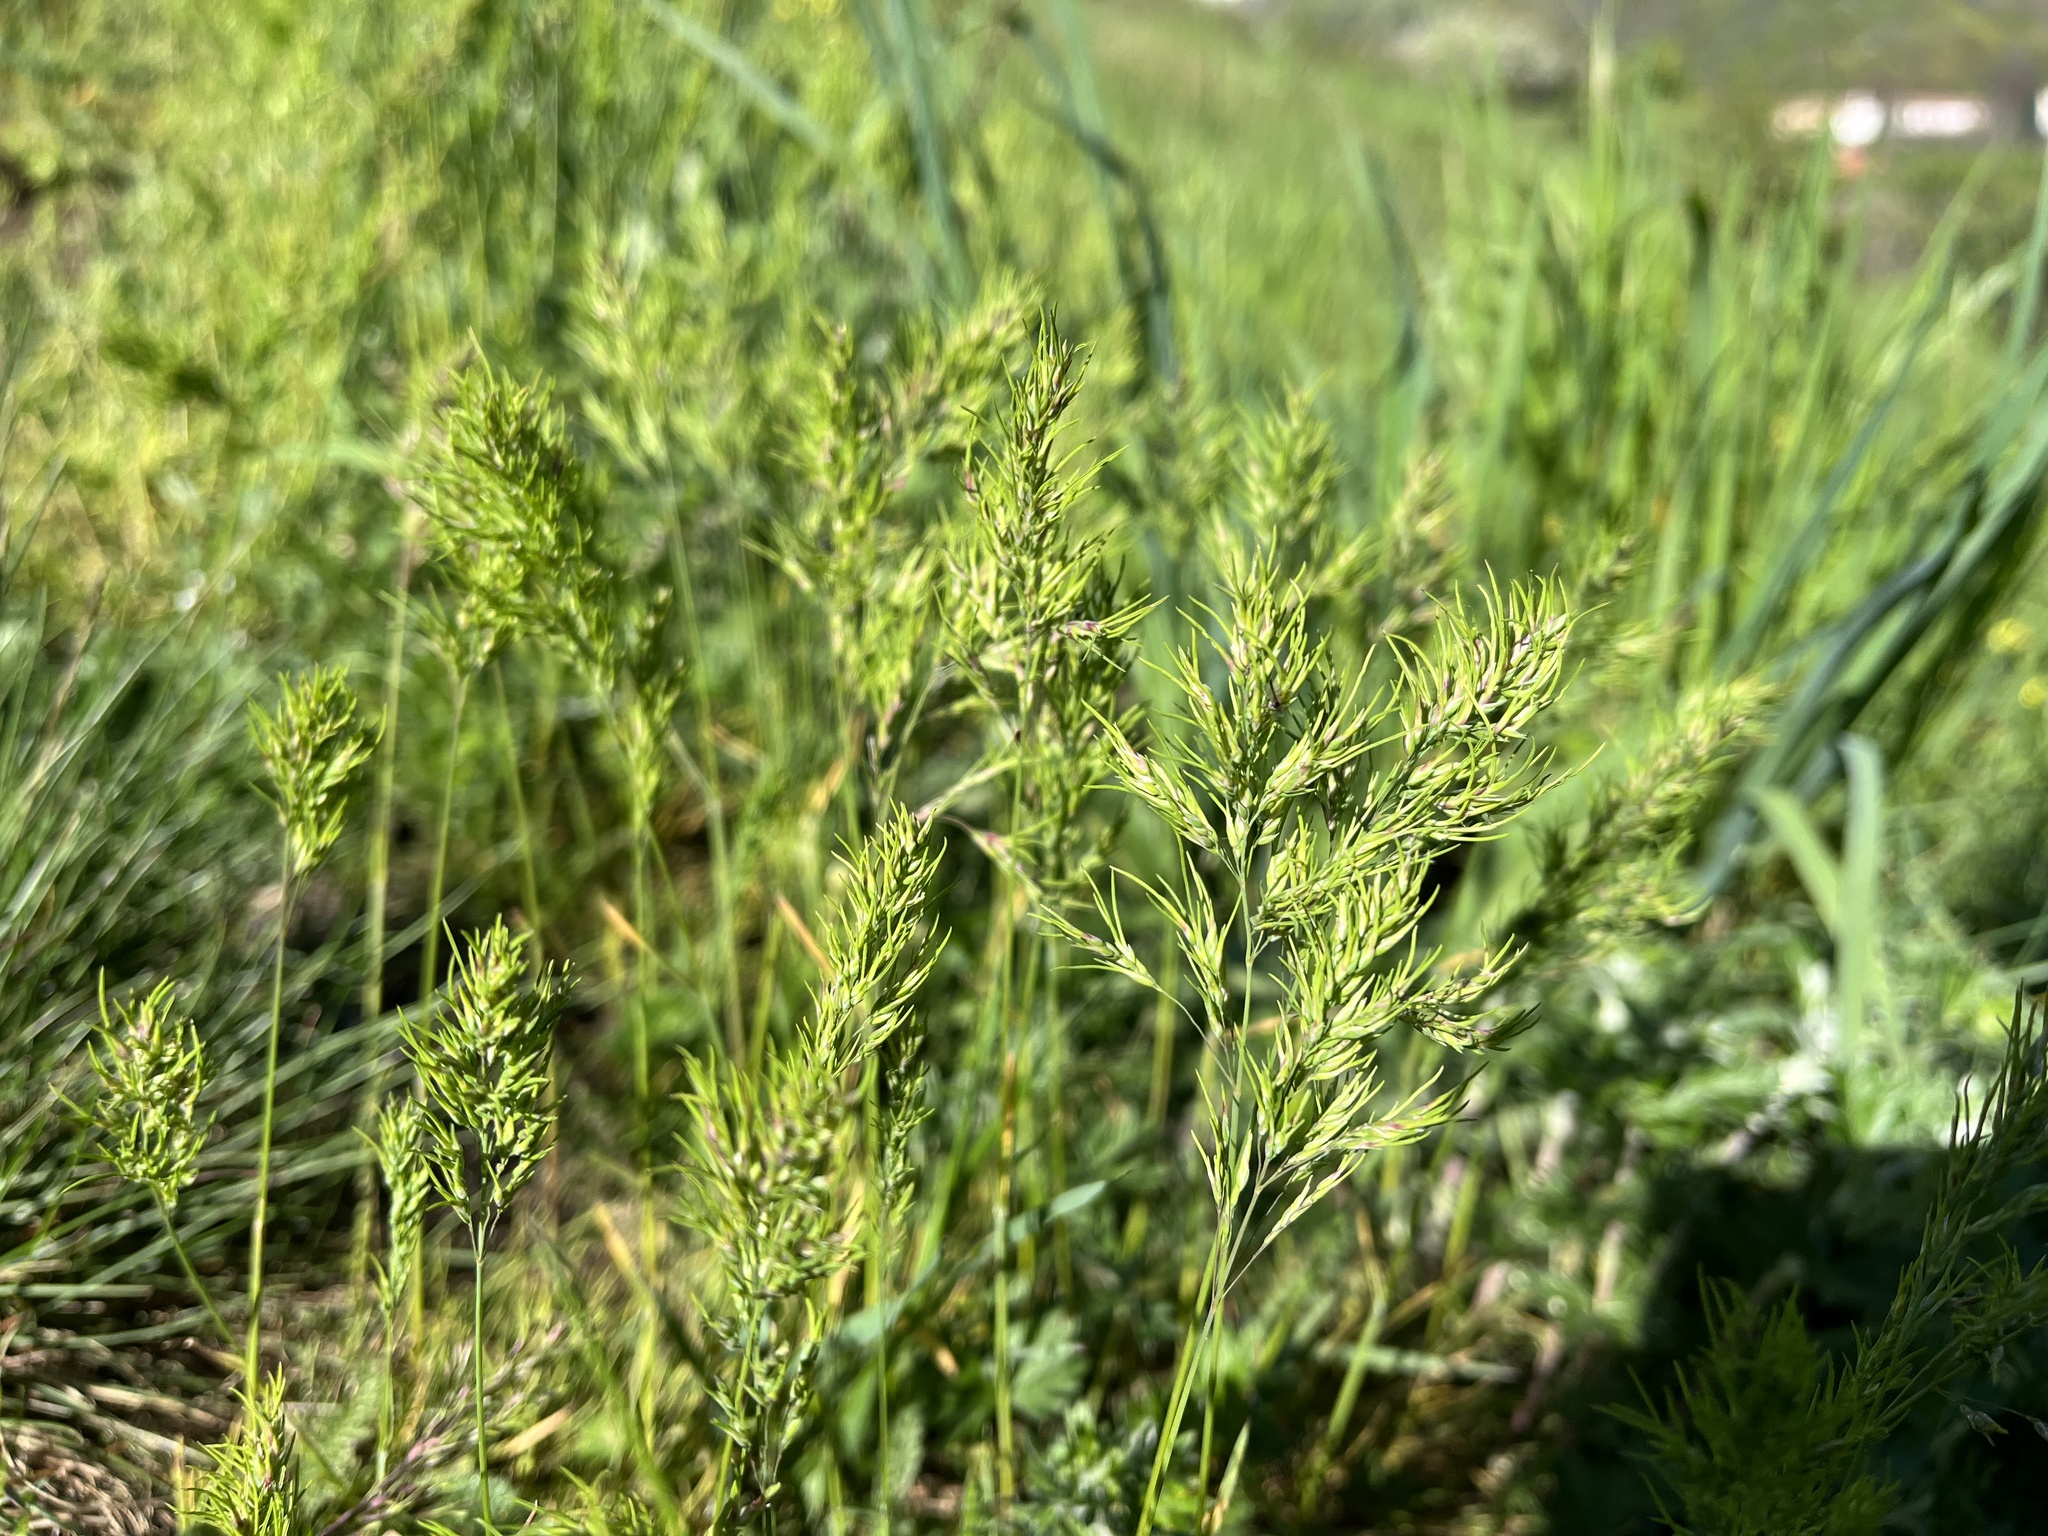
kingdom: Plantae
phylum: Tracheophyta
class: Liliopsida
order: Poales
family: Poaceae
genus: Poa
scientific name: Poa bulbosa
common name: Bulbous bluegrass
